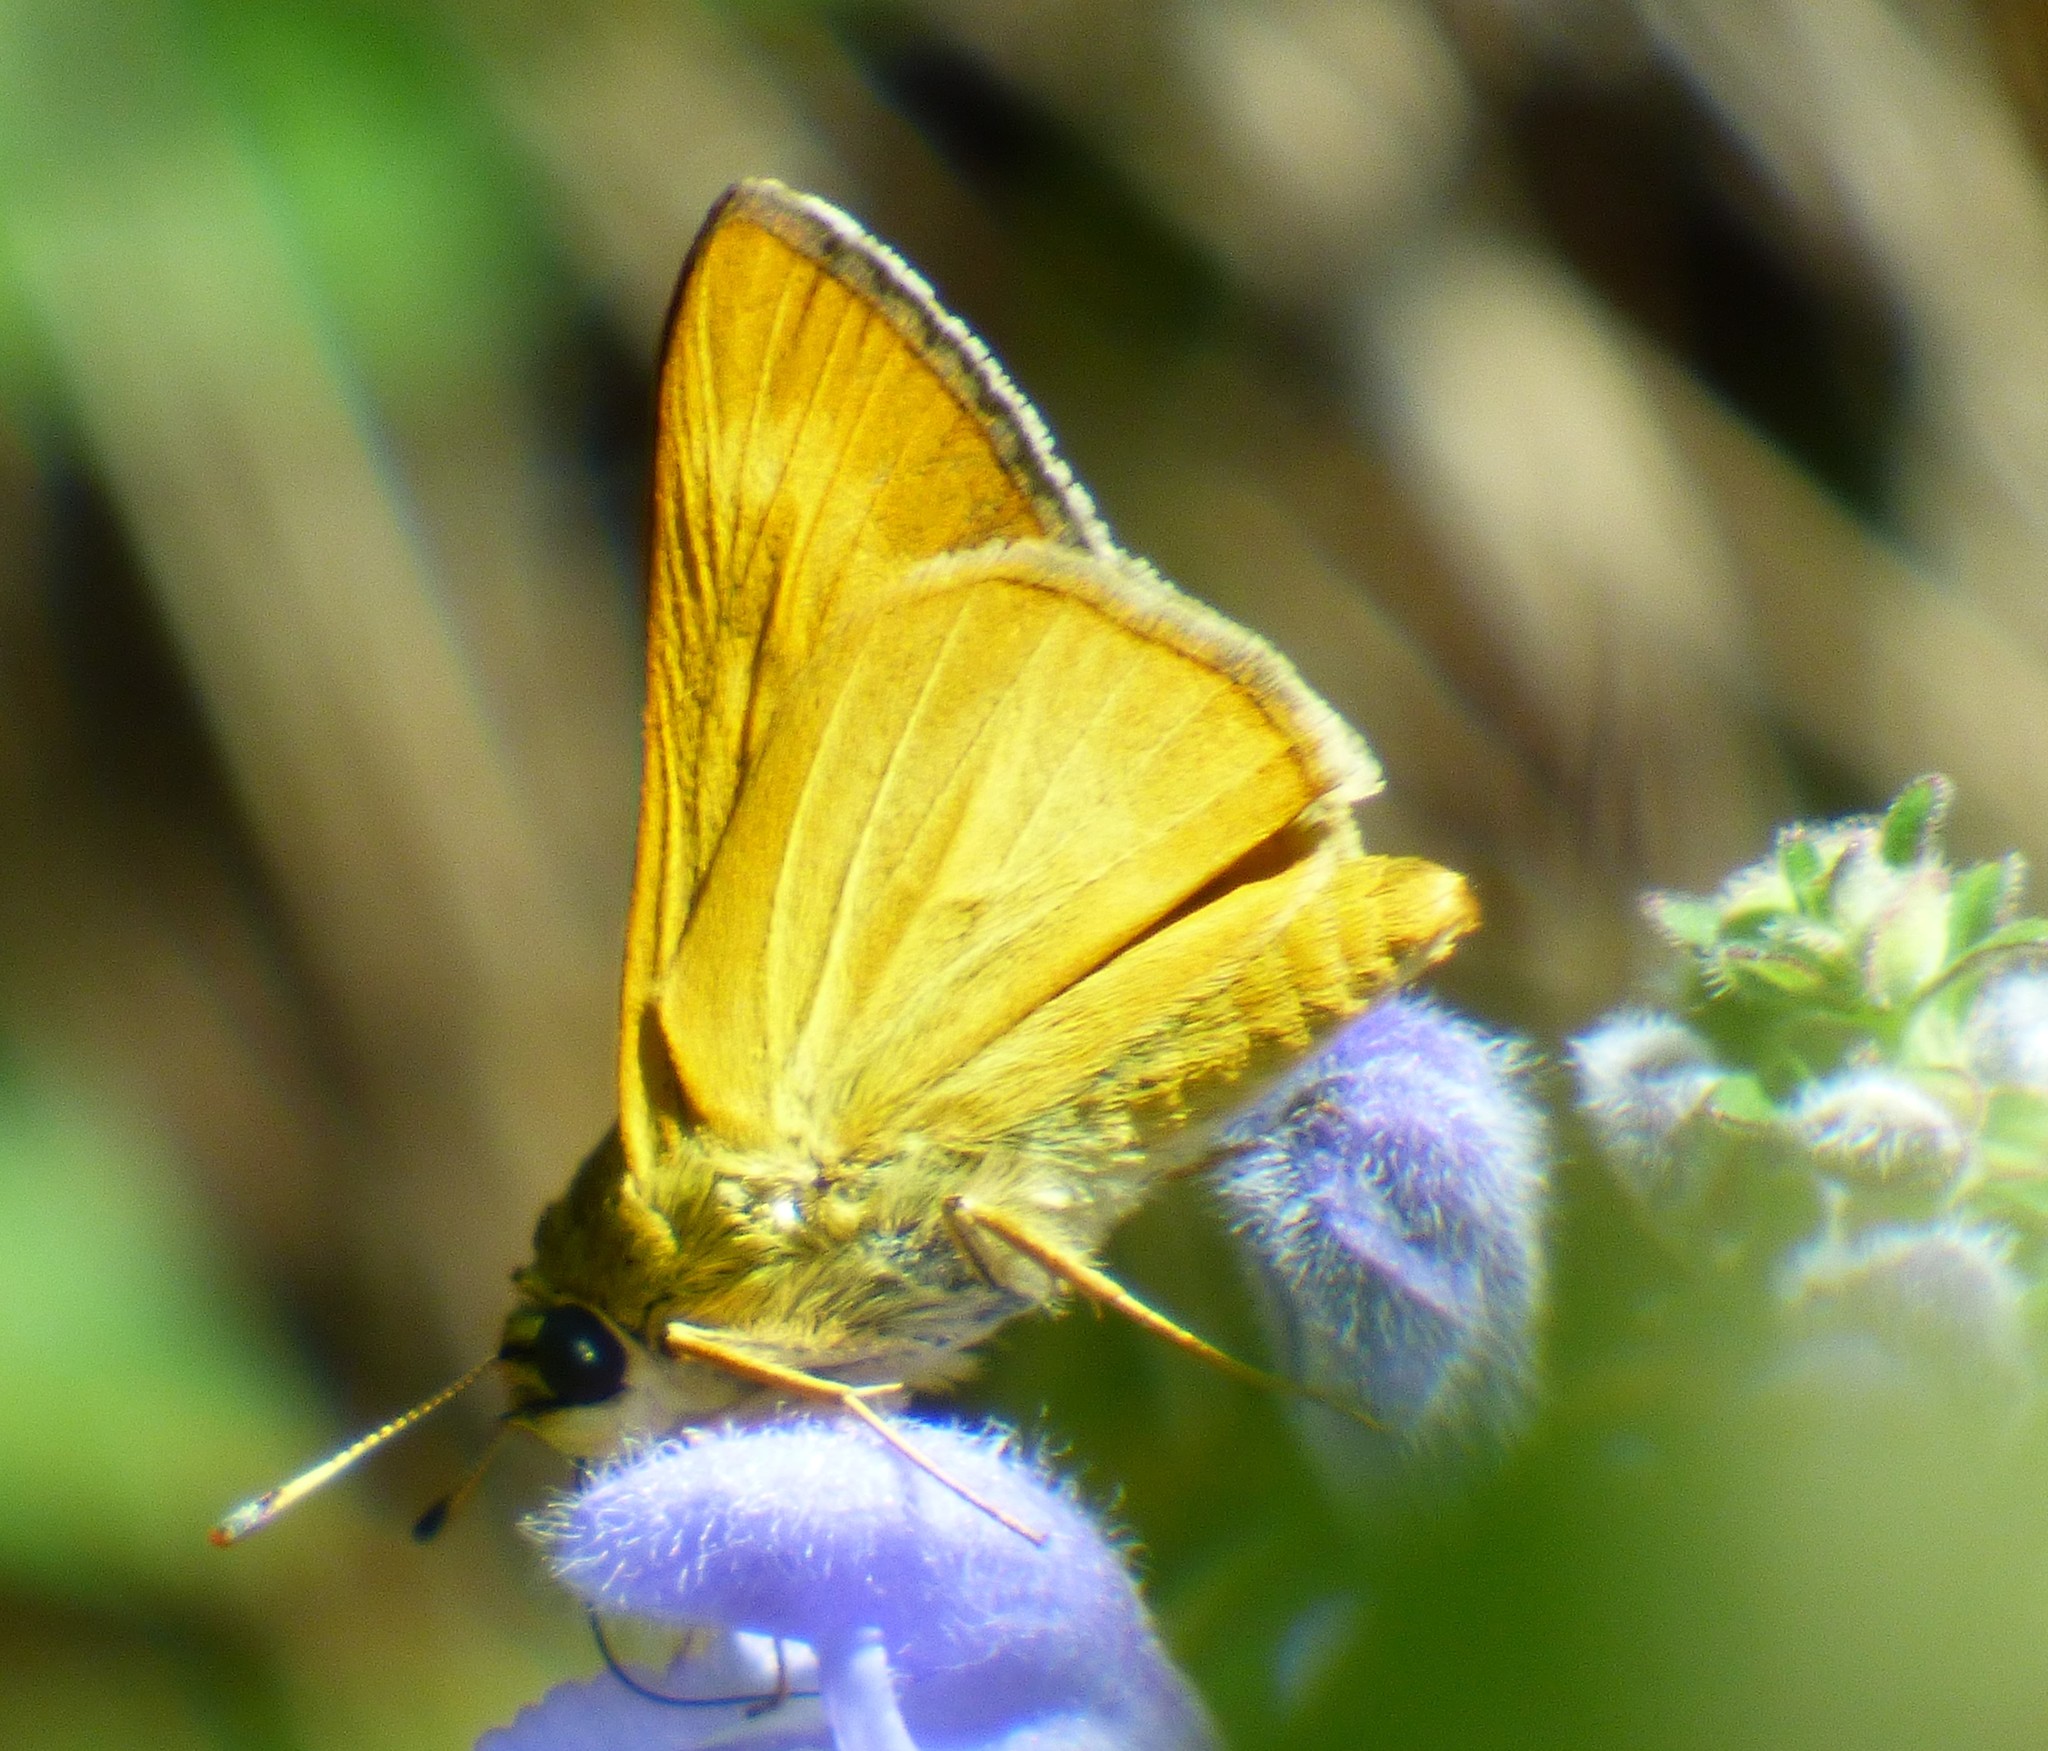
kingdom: Animalia
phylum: Arthropoda
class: Insecta
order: Lepidoptera
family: Hesperiidae
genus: Problema
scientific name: Problema byssus
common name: Byssus skipper
